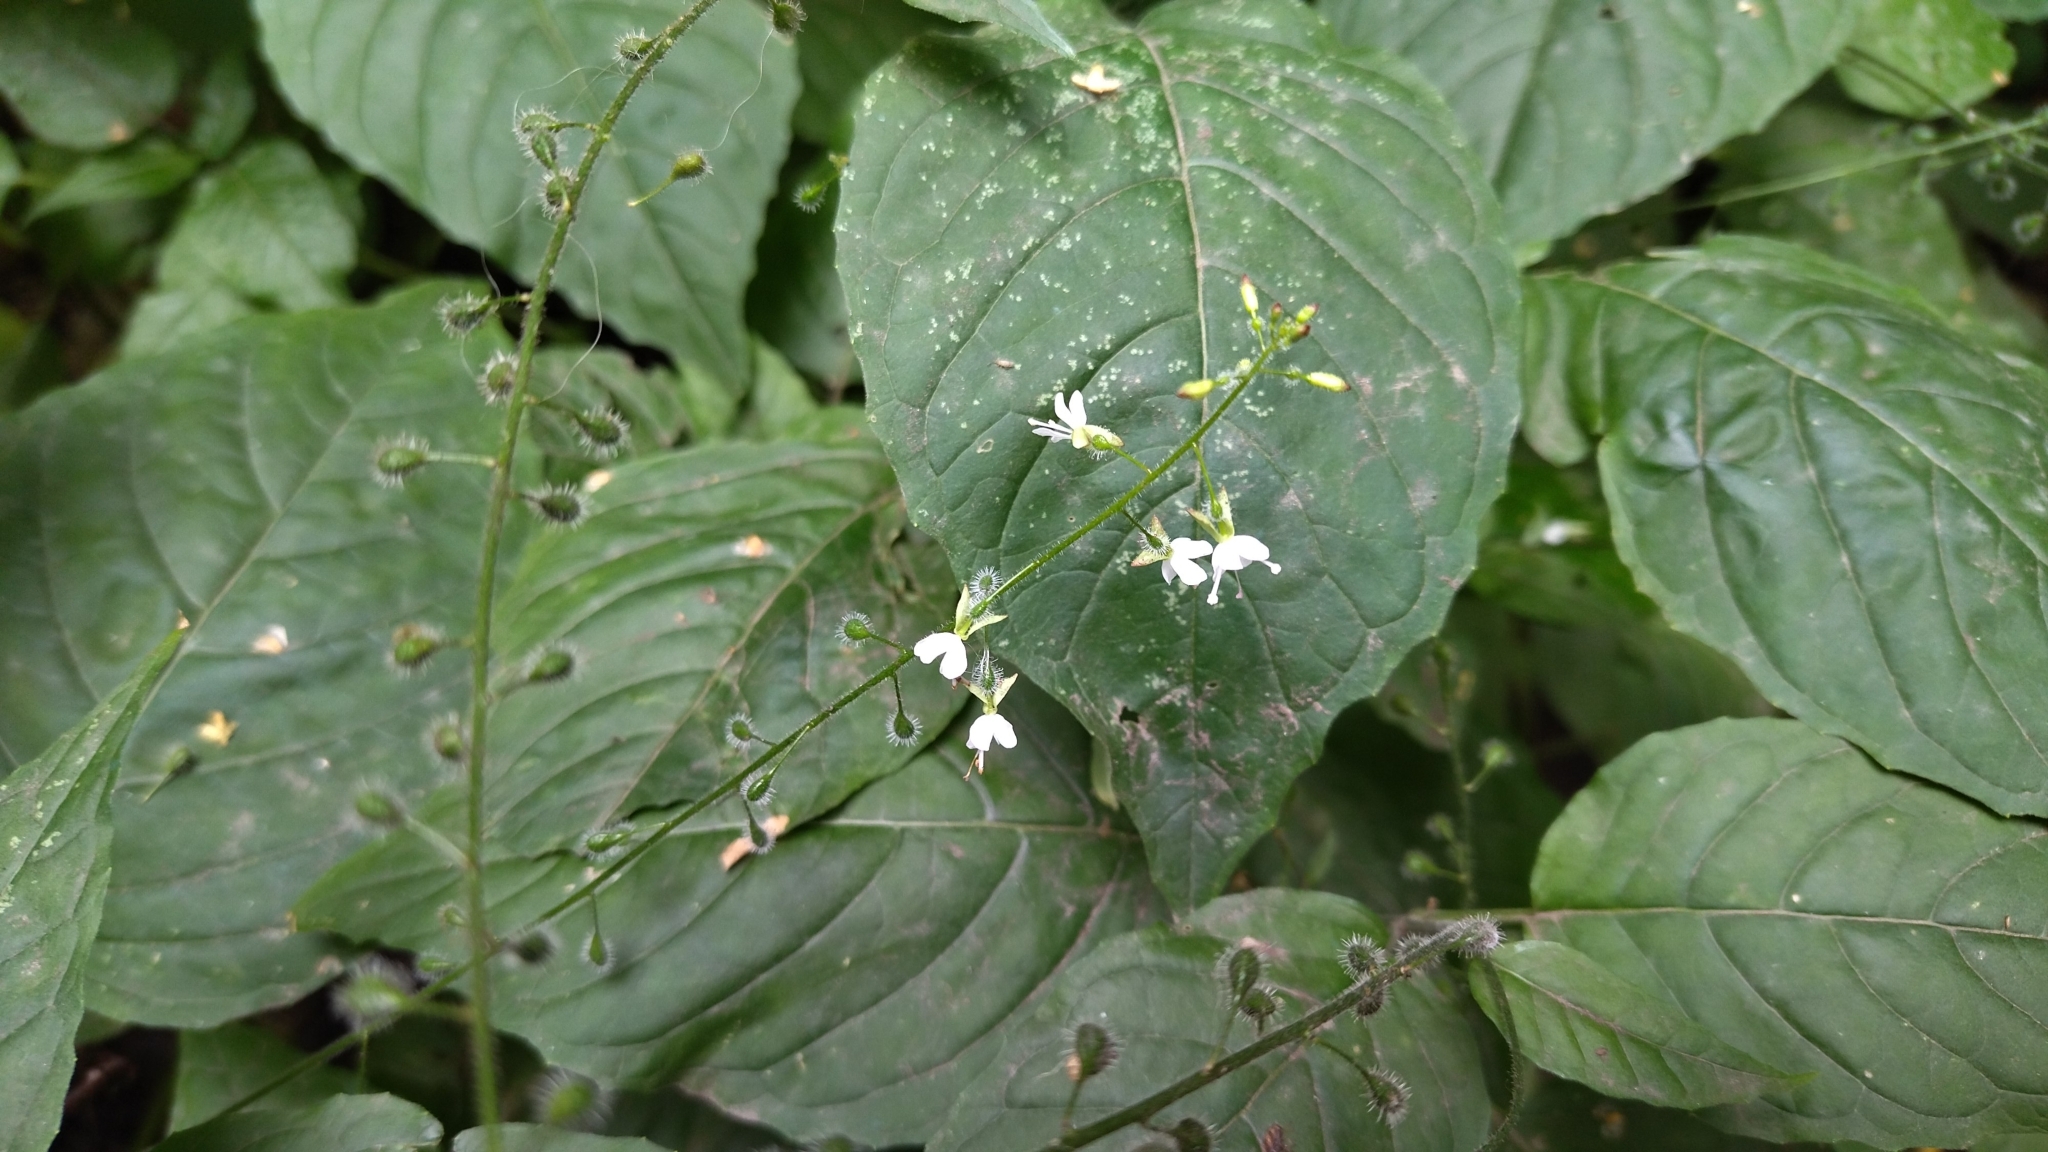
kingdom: Plantae
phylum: Tracheophyta
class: Magnoliopsida
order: Myrtales
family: Onagraceae
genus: Circaea
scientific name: Circaea lutetiana
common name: Enchanter's-nightshade
